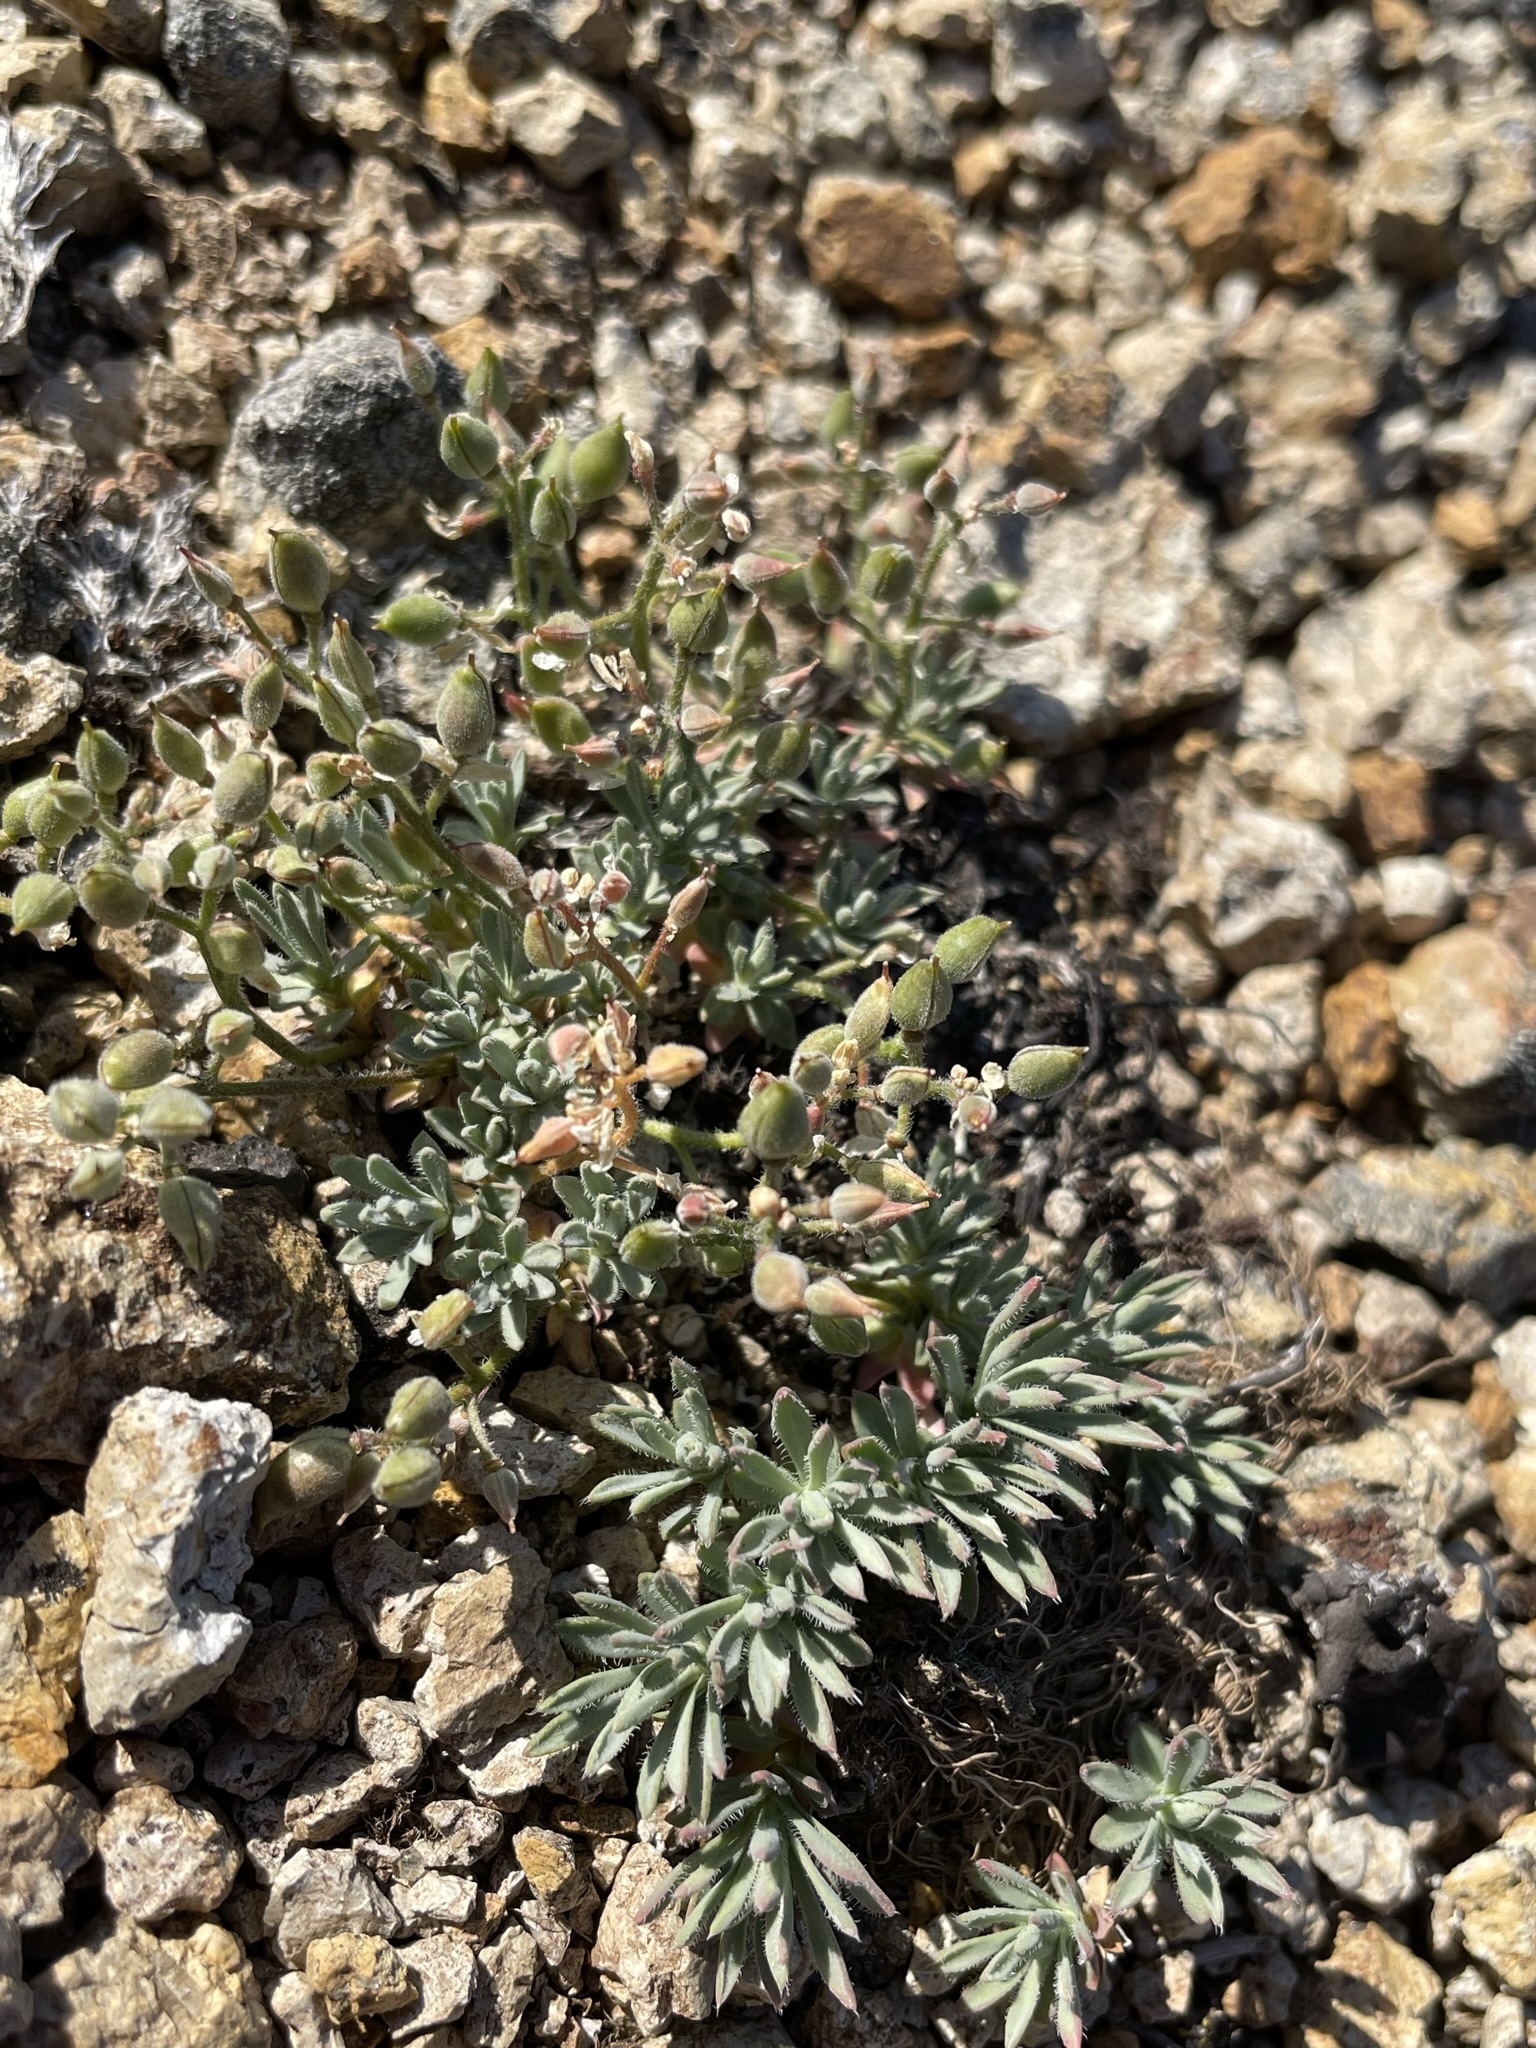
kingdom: Plantae
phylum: Tracheophyta
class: Magnoliopsida
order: Brassicales
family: Brassicaceae
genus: Cusickiella
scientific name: Cusickiella douglasii
